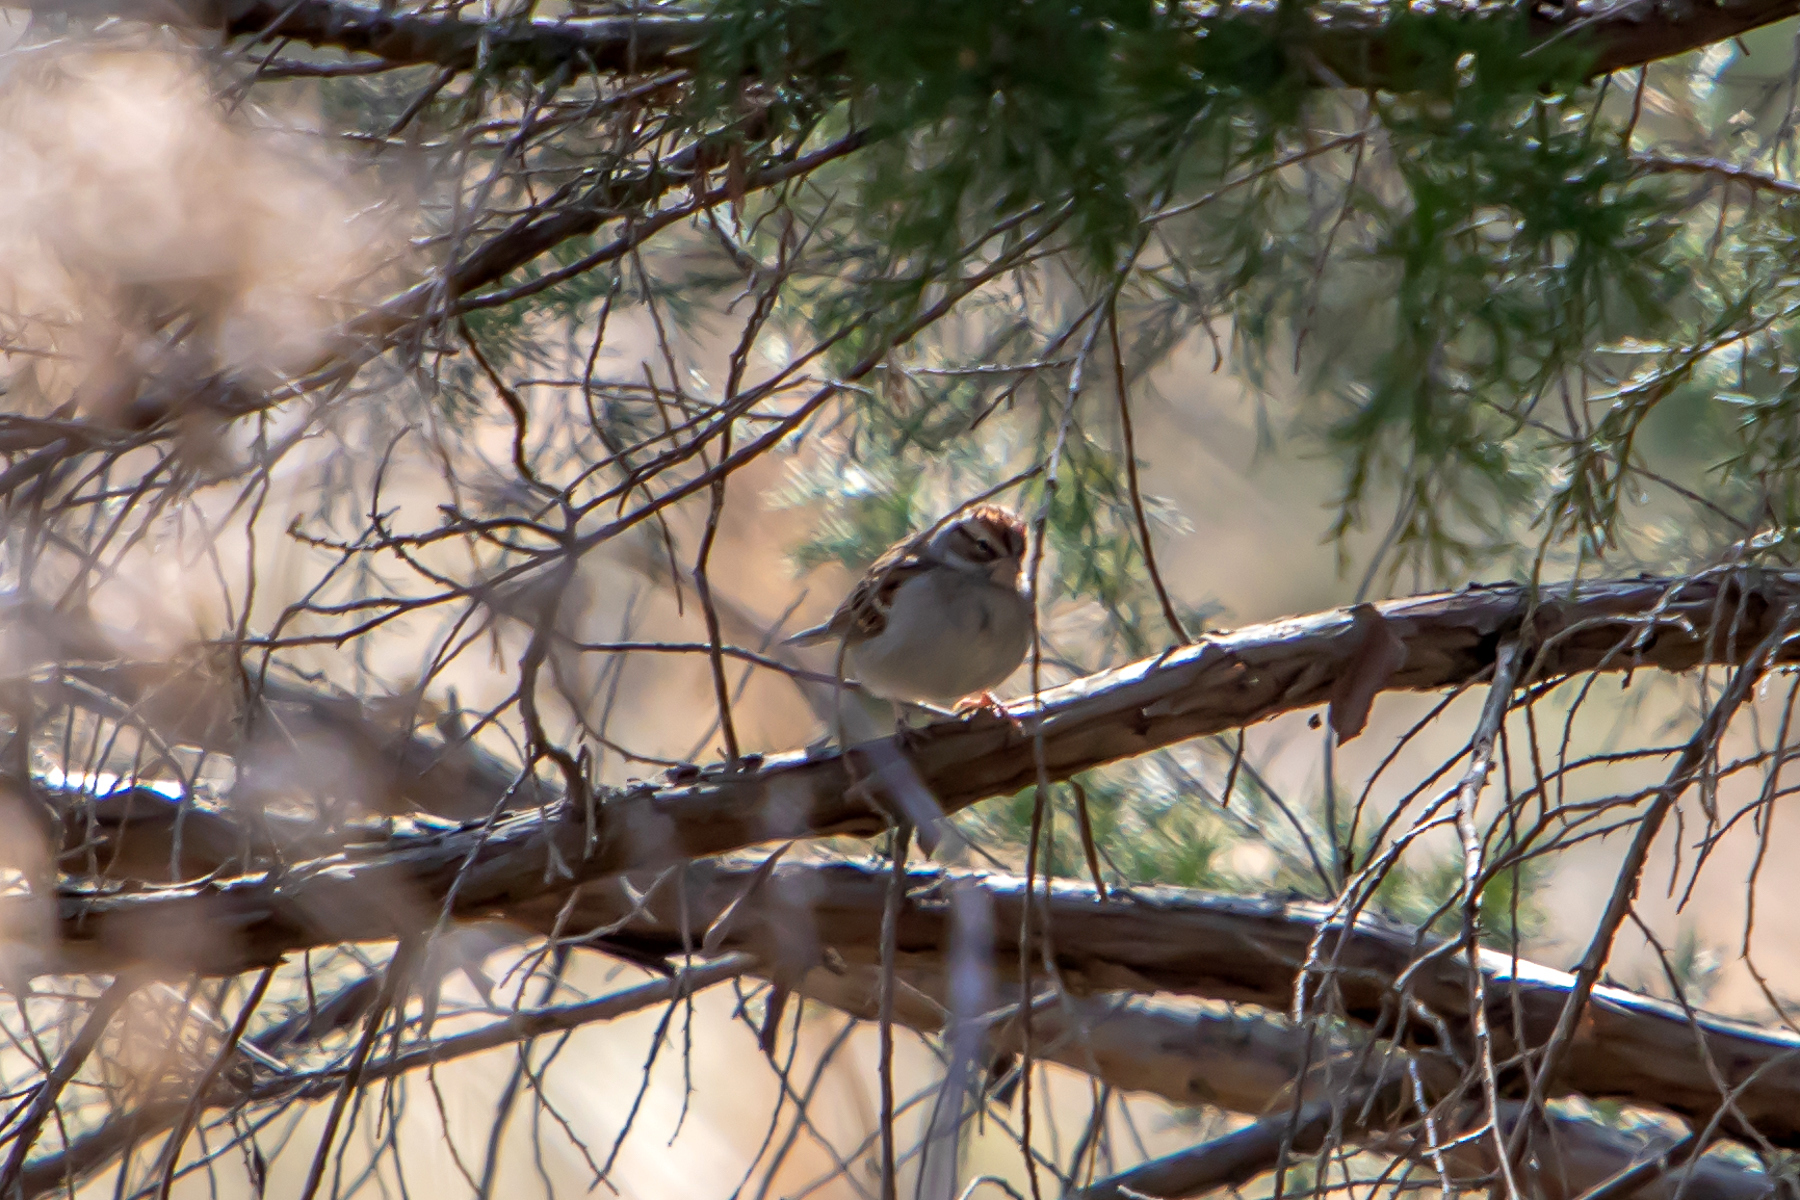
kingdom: Animalia
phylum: Chordata
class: Aves
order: Passeriformes
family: Passerellidae
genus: Spizella
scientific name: Spizella passerina
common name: Chipping sparrow
